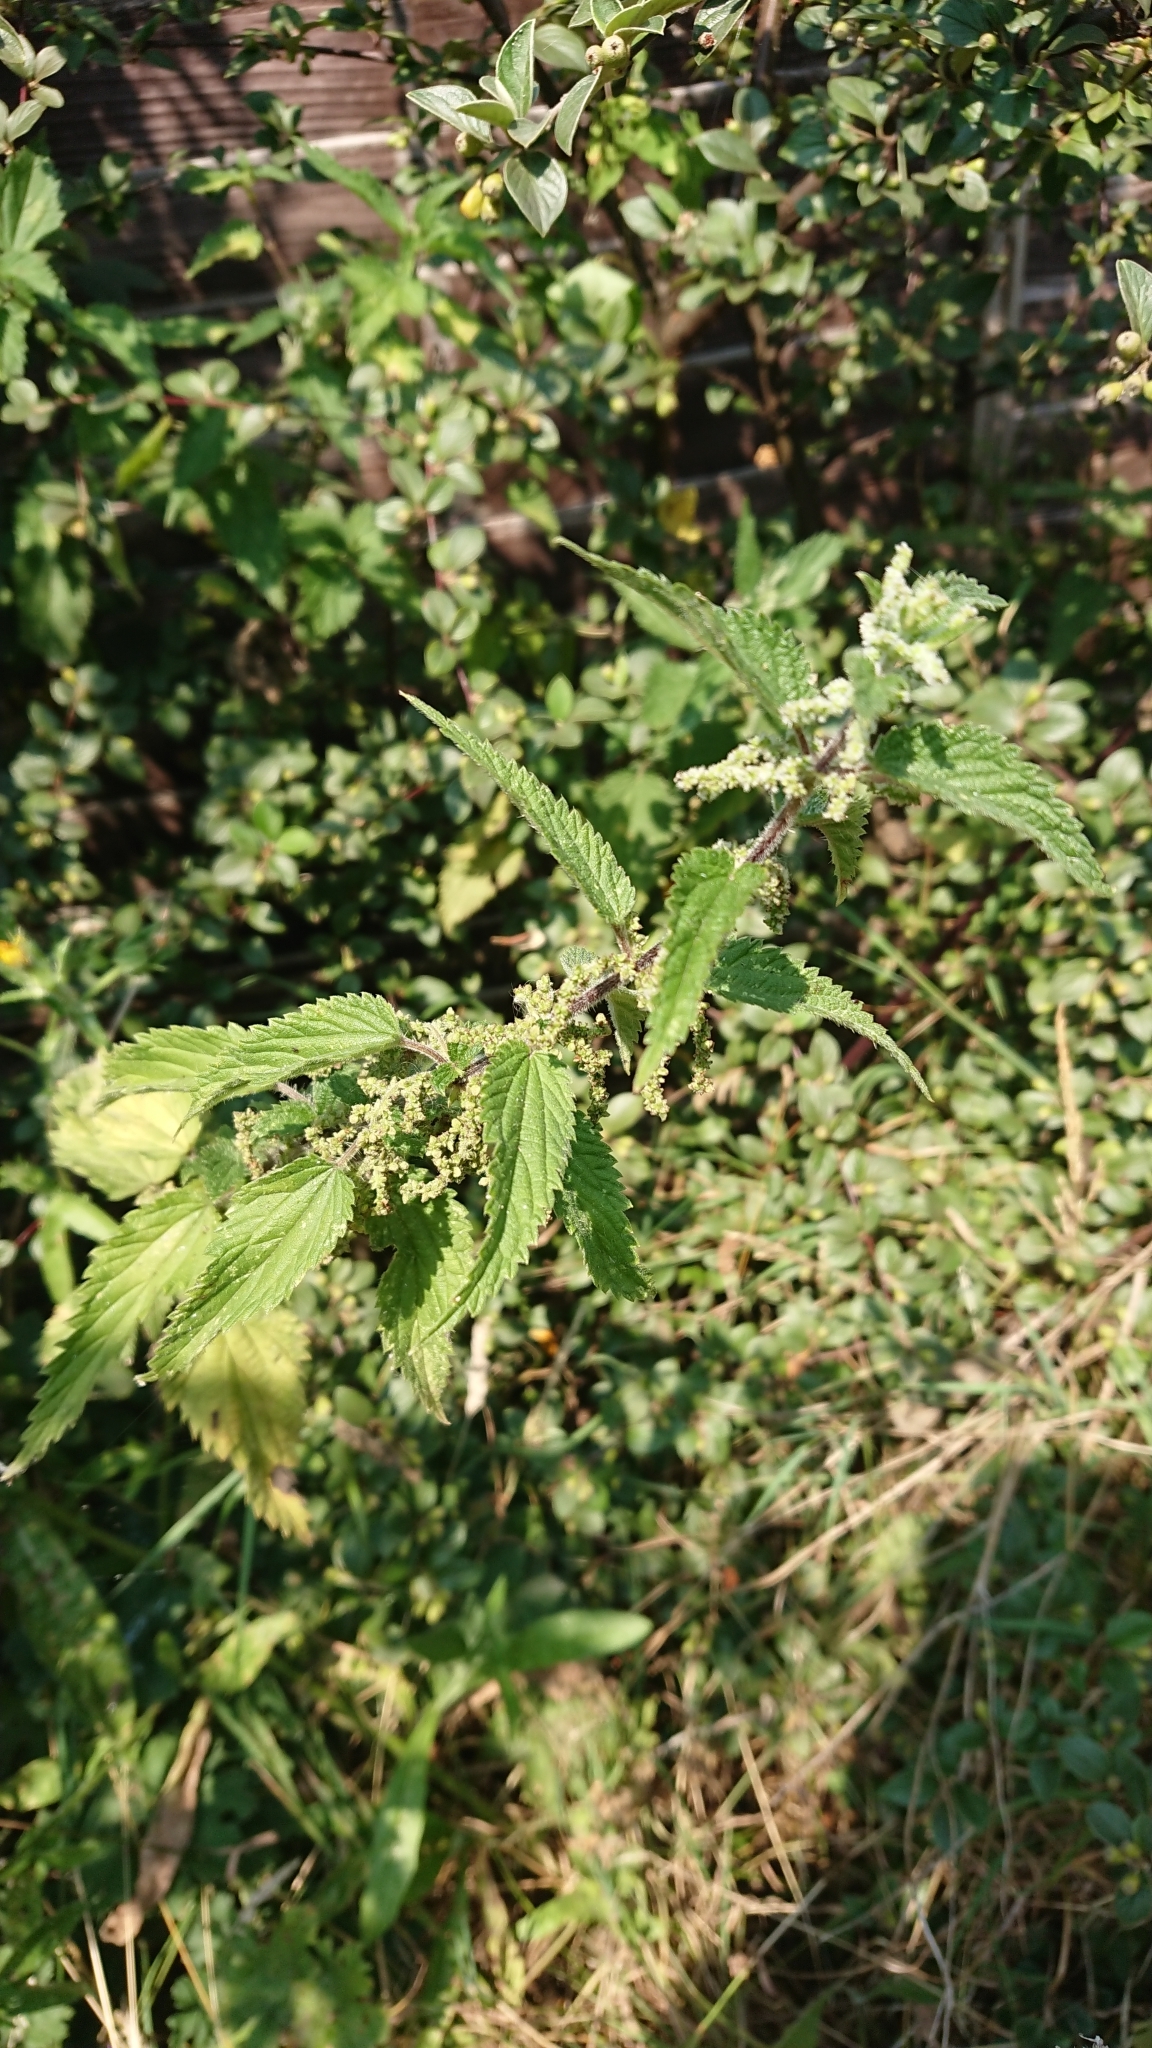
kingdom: Plantae
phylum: Tracheophyta
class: Magnoliopsida
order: Rosales
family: Urticaceae
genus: Urtica
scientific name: Urtica dioica
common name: Common nettle
